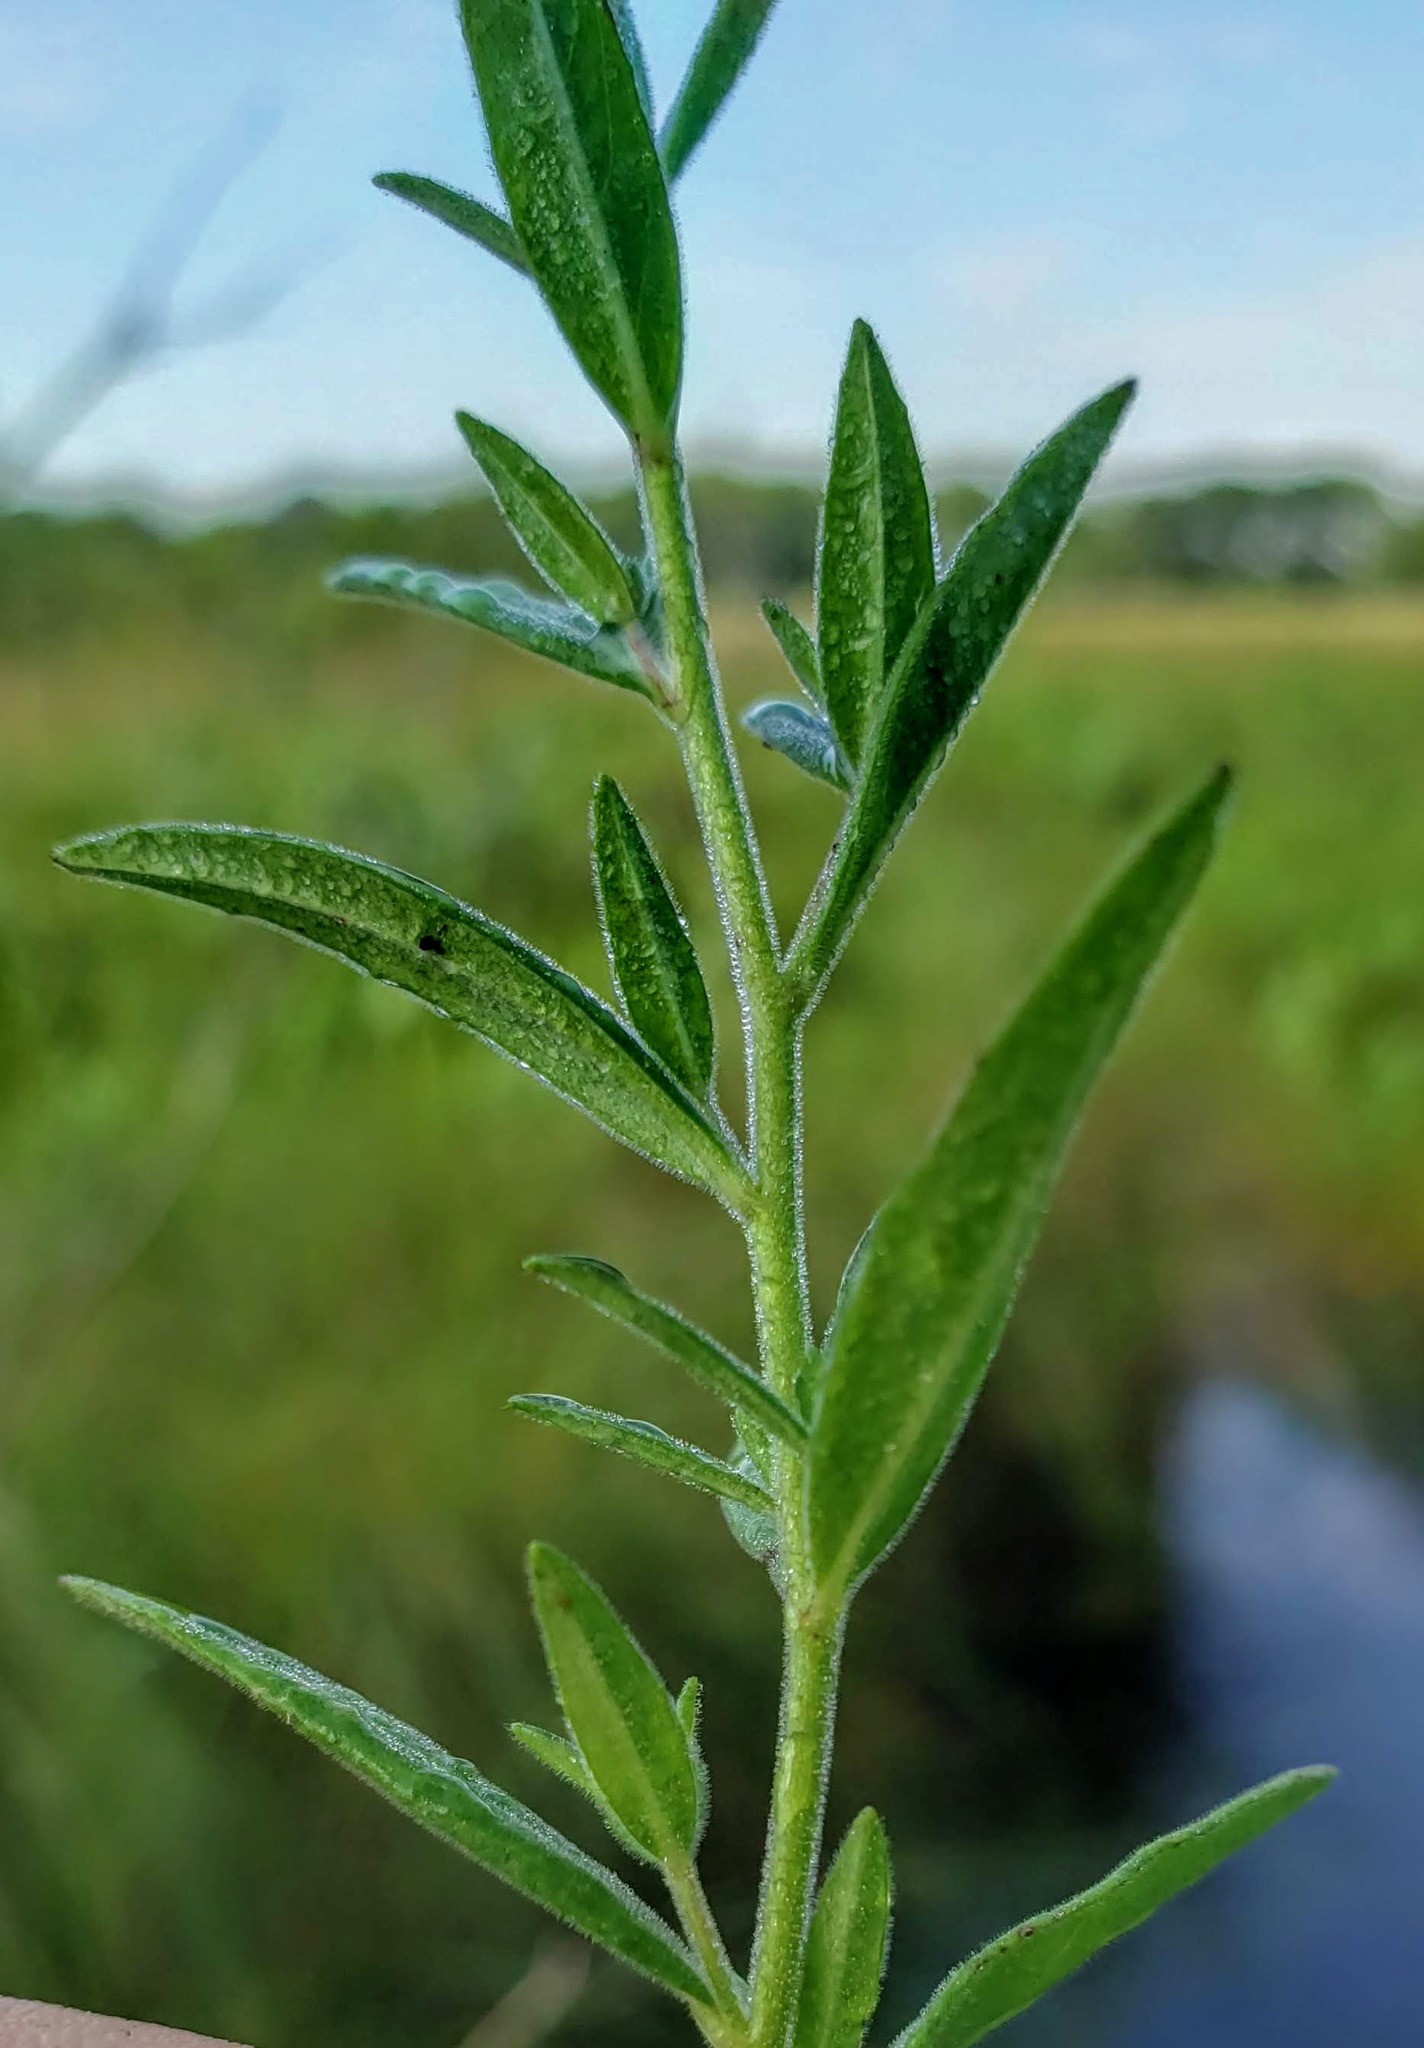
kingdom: Plantae
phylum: Tracheophyta
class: Magnoliopsida
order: Myrtales
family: Onagraceae
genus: Epilobium
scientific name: Epilobium densum
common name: Downy willowherb
